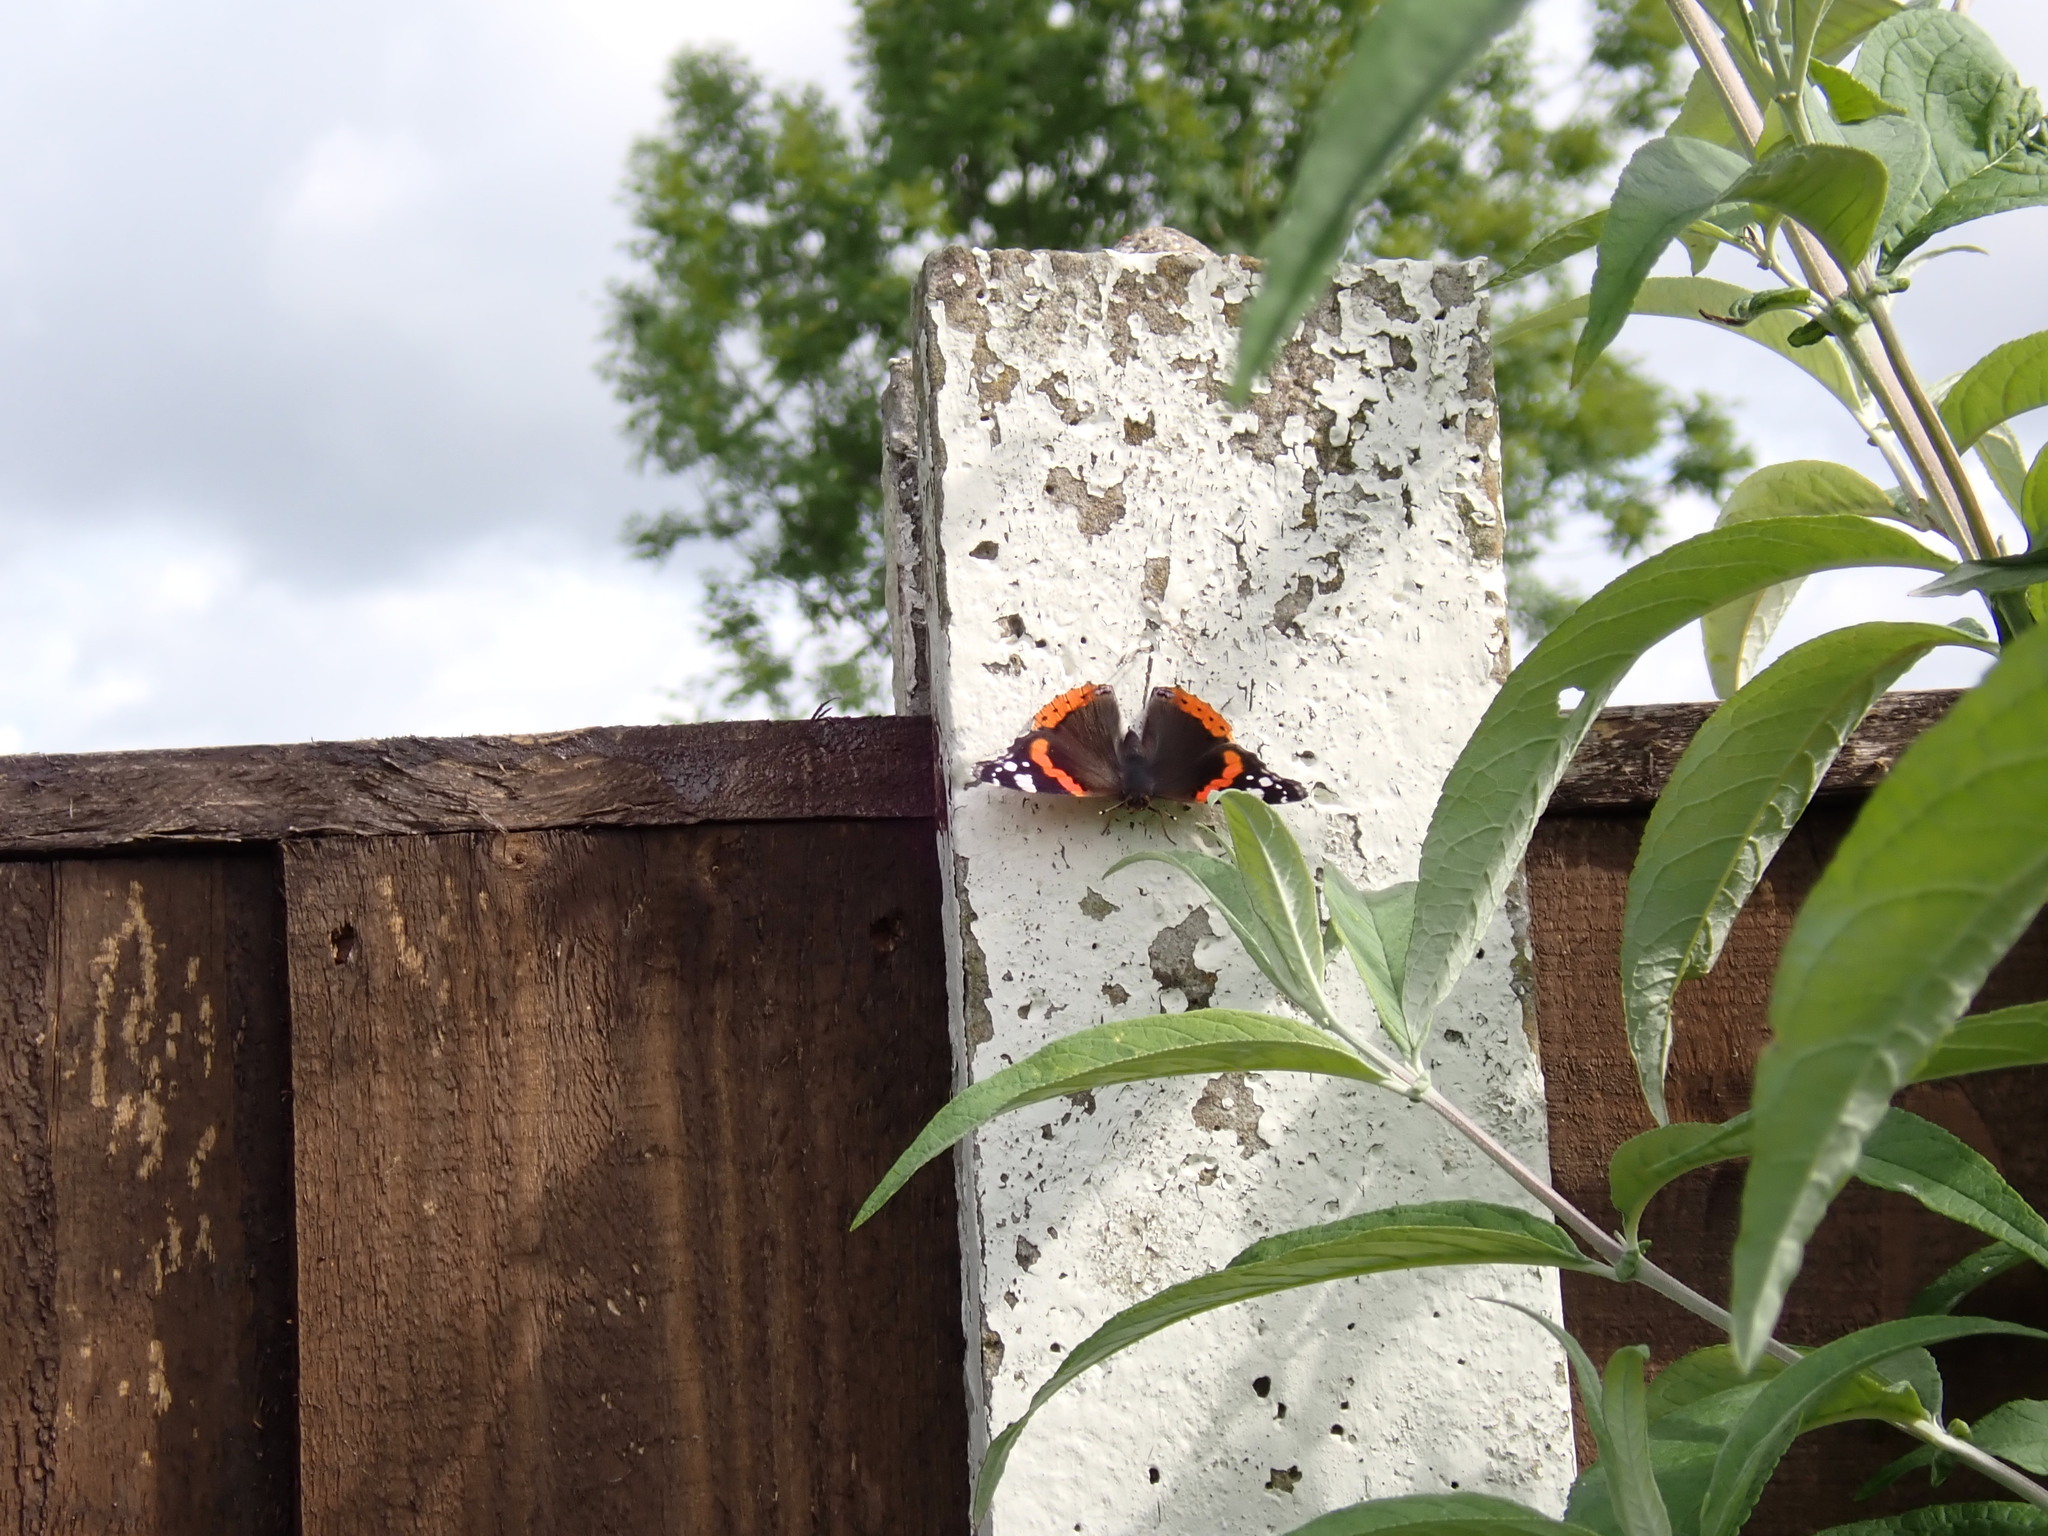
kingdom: Animalia
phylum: Arthropoda
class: Insecta
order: Lepidoptera
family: Nymphalidae
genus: Vanessa
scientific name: Vanessa atalanta
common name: Red admiral
